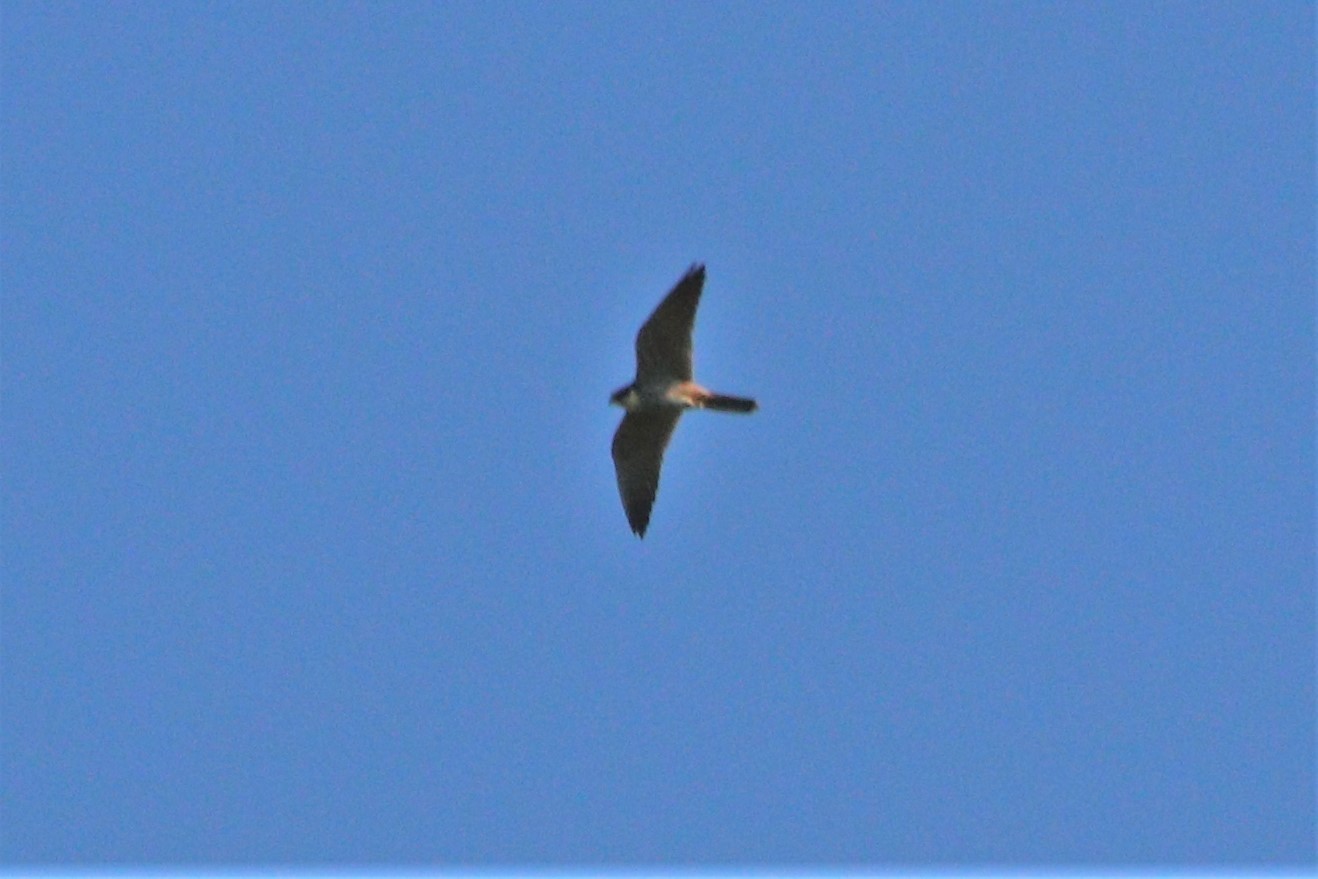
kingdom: Animalia
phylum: Chordata
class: Aves
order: Falconiformes
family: Falconidae
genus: Falco
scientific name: Falco subbuteo
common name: Eurasian hobby
